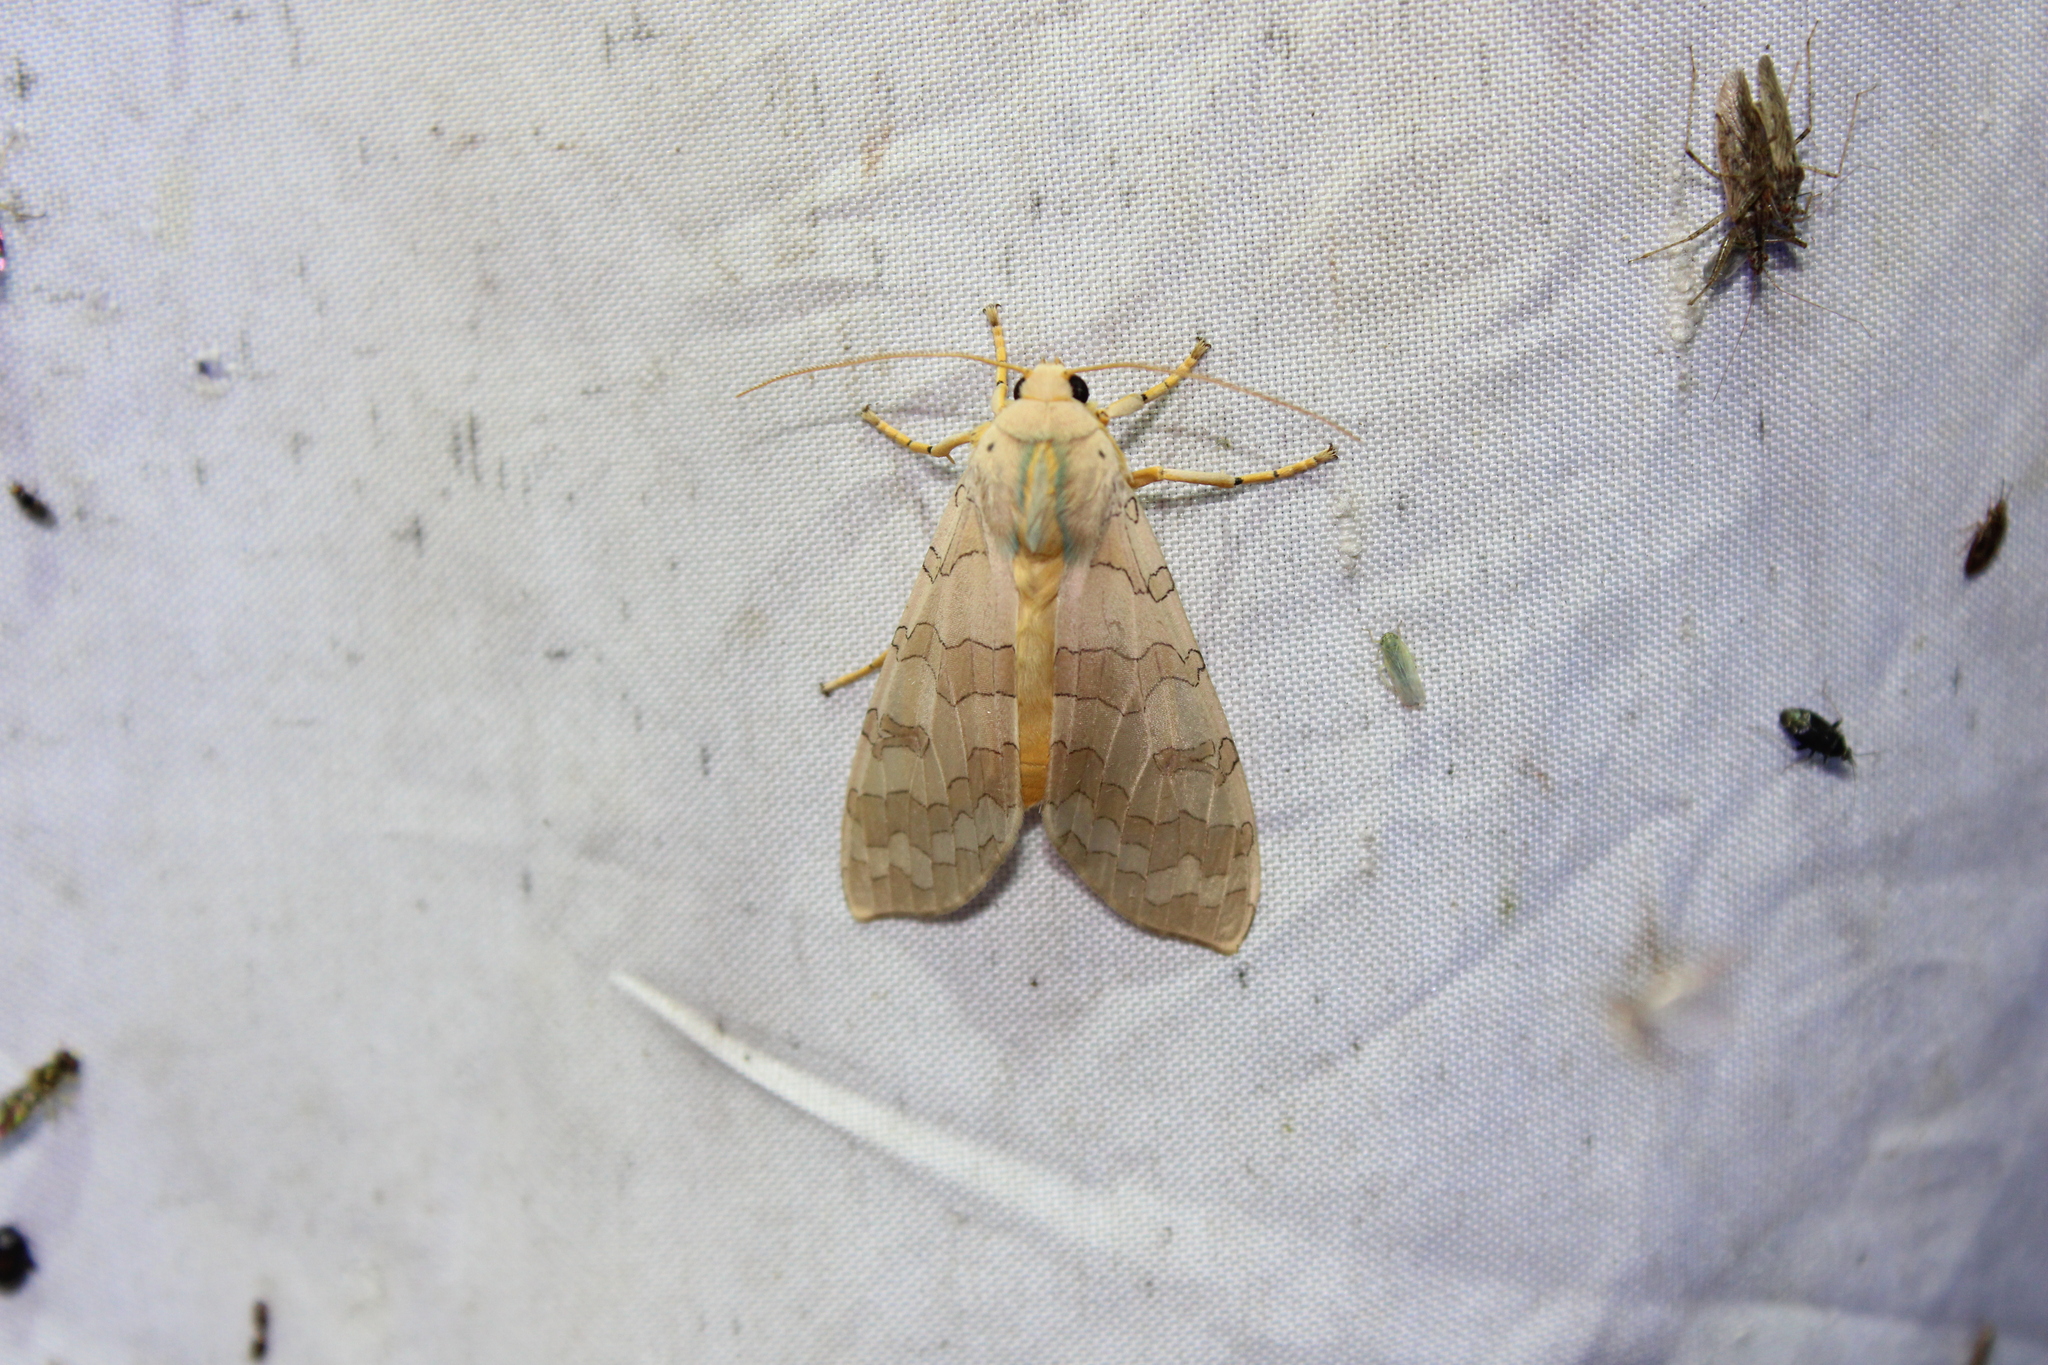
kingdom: Animalia
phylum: Arthropoda
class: Insecta
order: Lepidoptera
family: Erebidae
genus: Halysidota
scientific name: Halysidota
